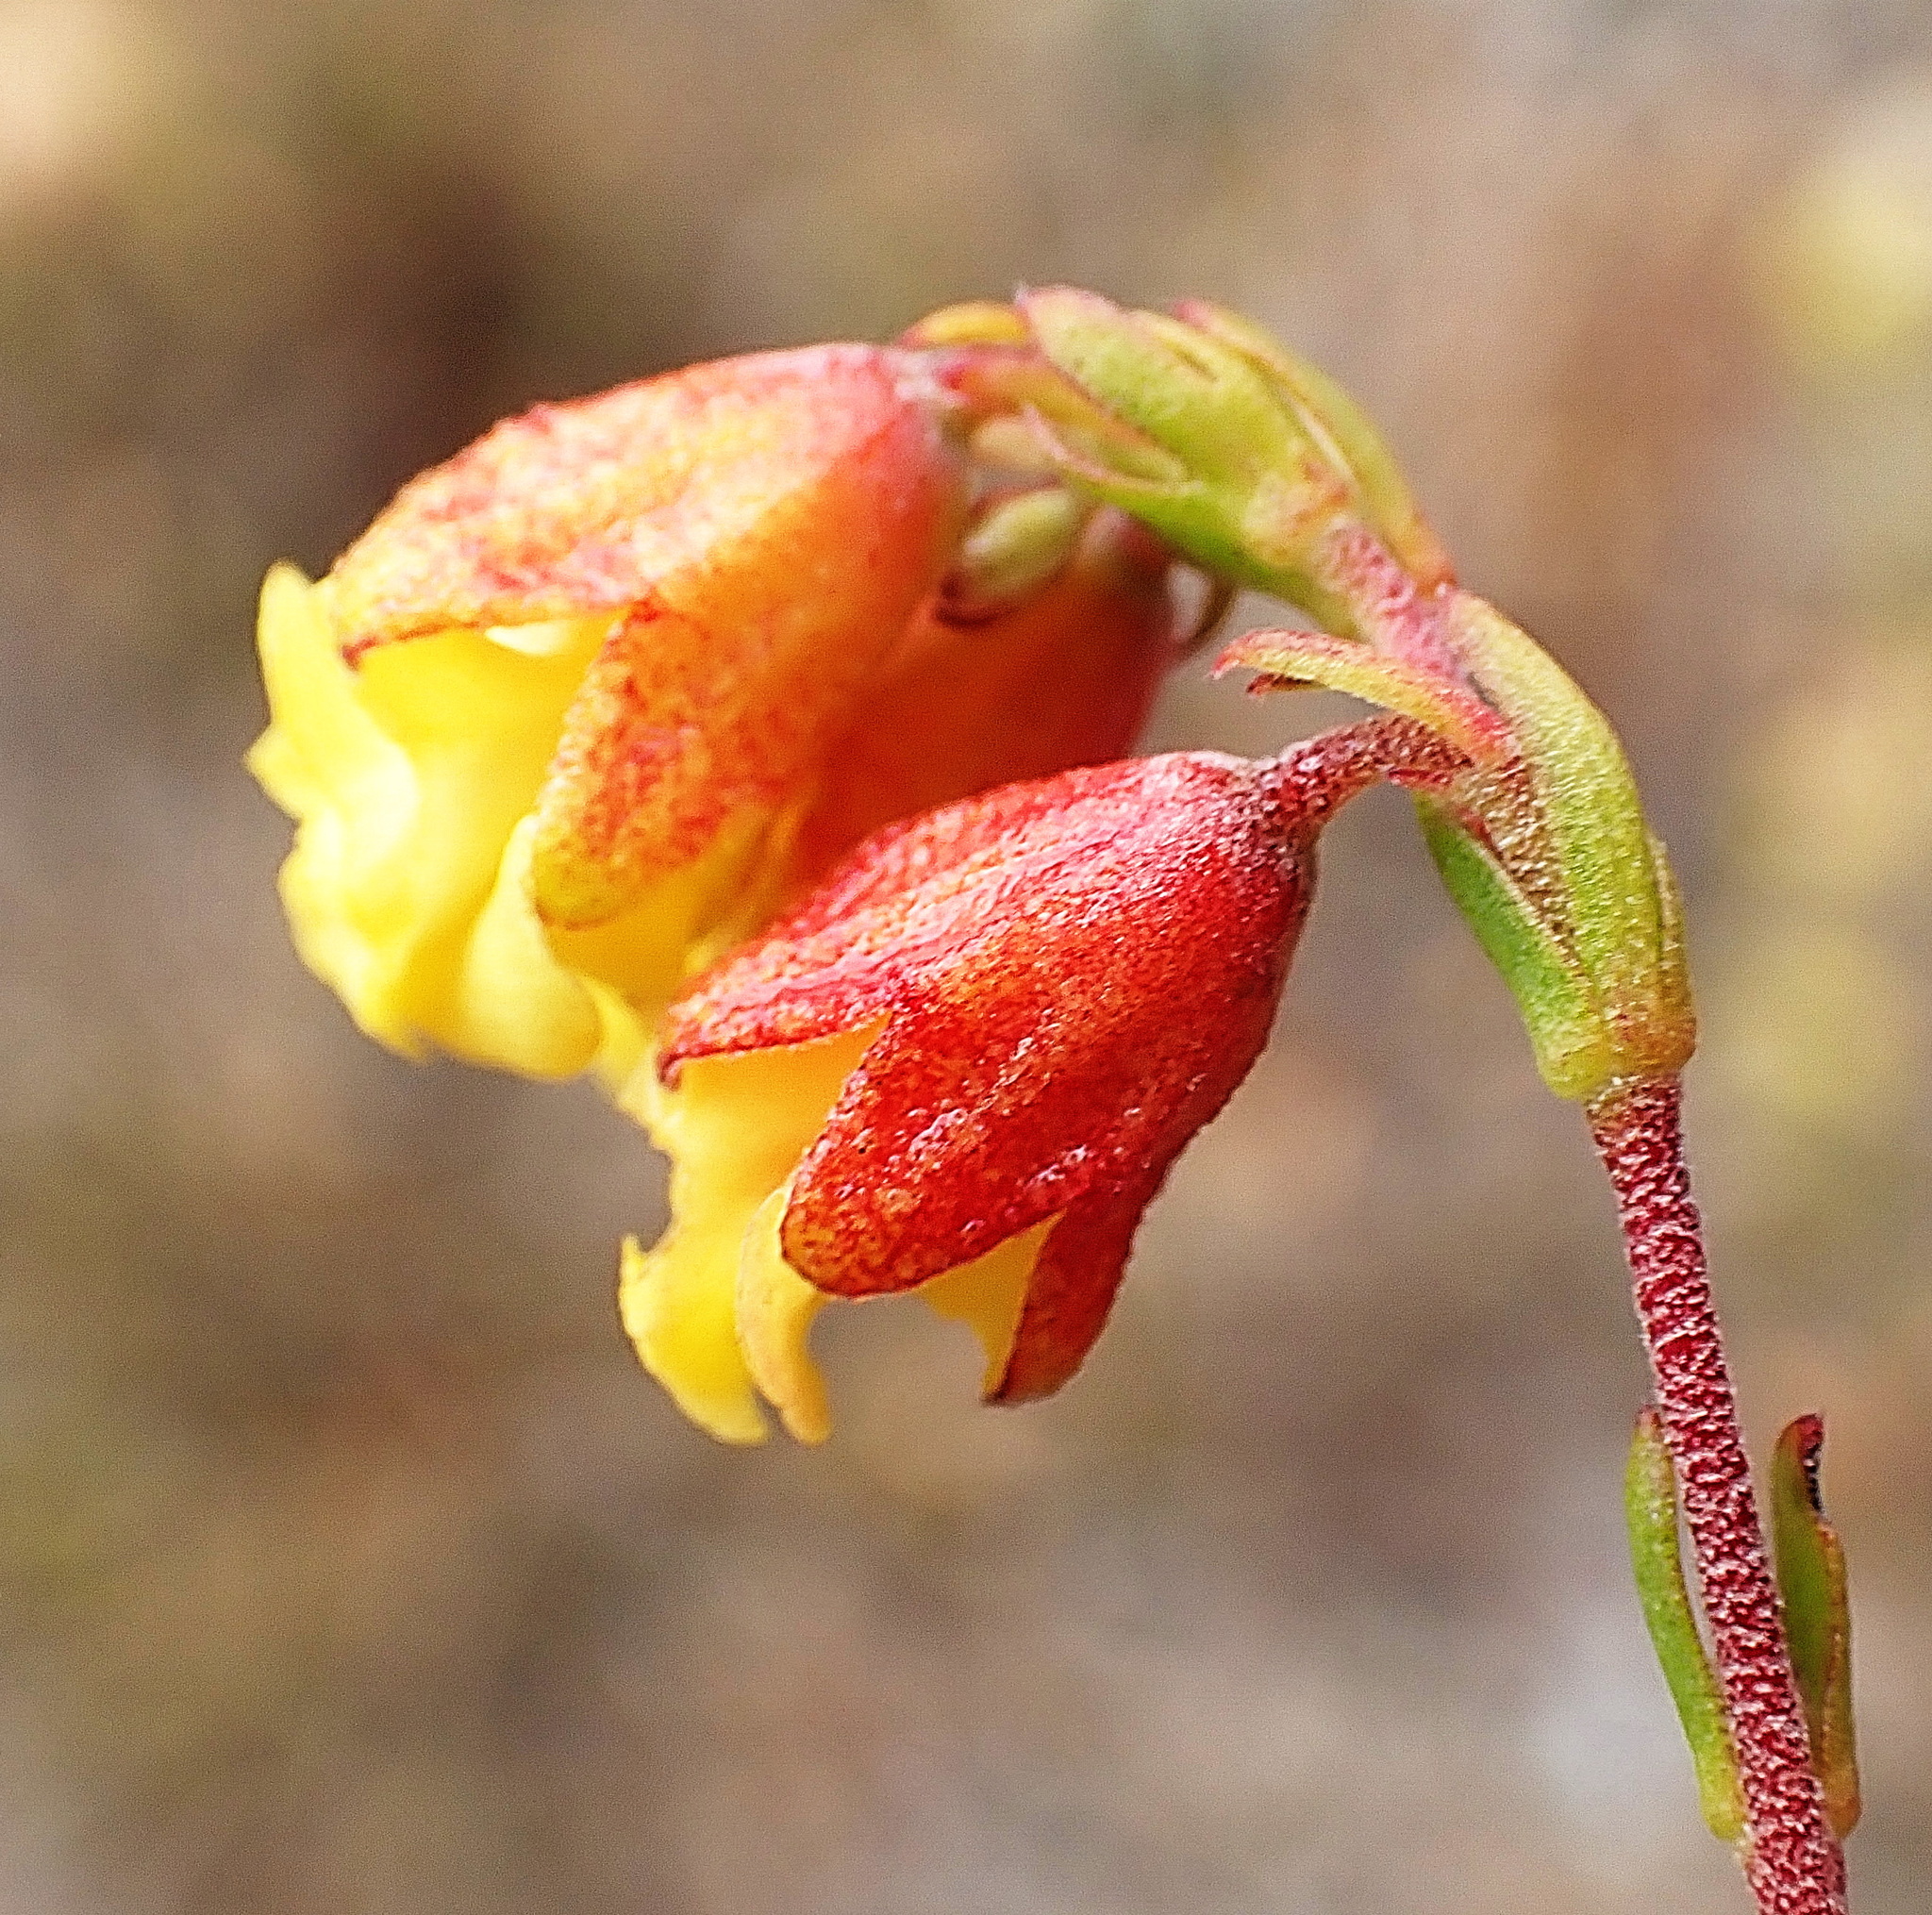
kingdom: Plantae
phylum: Tracheophyta
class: Magnoliopsida
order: Malvales
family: Malvaceae
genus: Hermannia
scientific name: Hermannia concinnifolia
